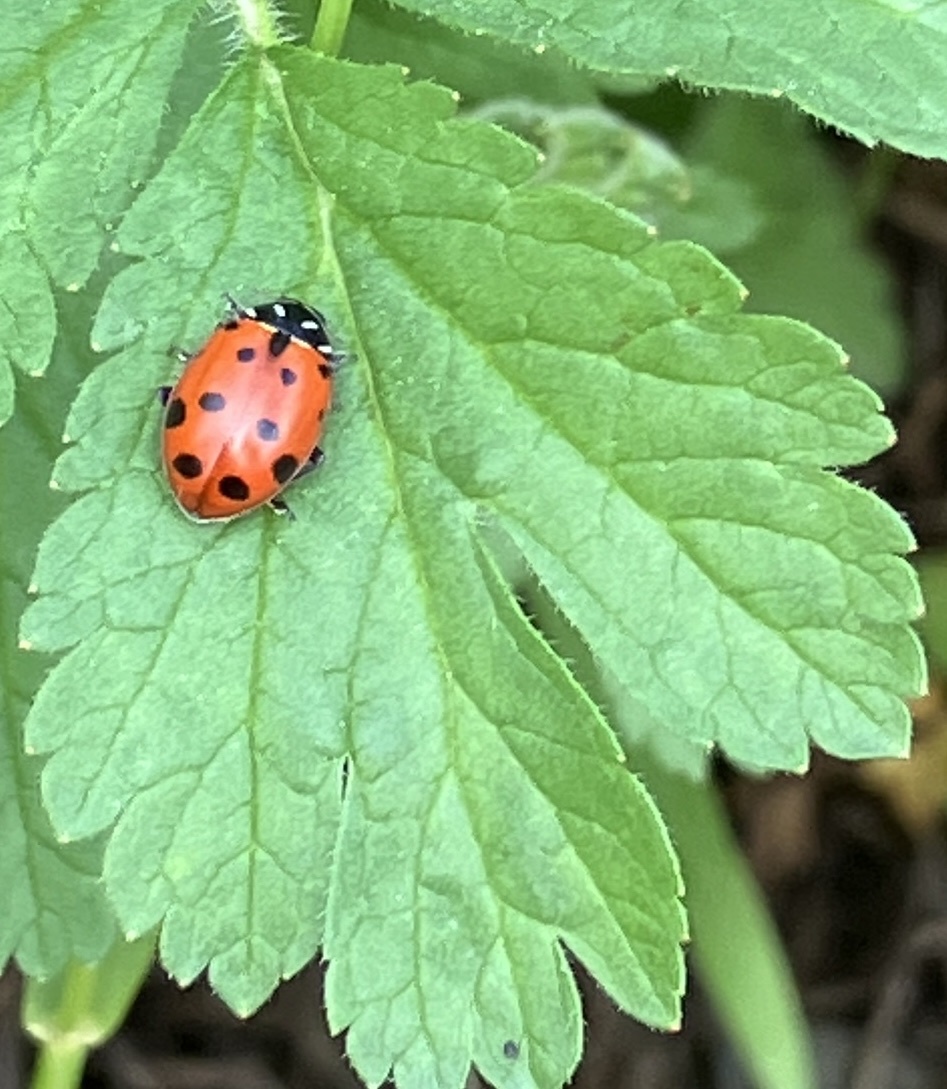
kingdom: Animalia
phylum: Arthropoda
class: Insecta
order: Coleoptera
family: Coccinellidae
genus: Hippodamia
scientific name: Hippodamia convergens
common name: Convergent lady beetle
